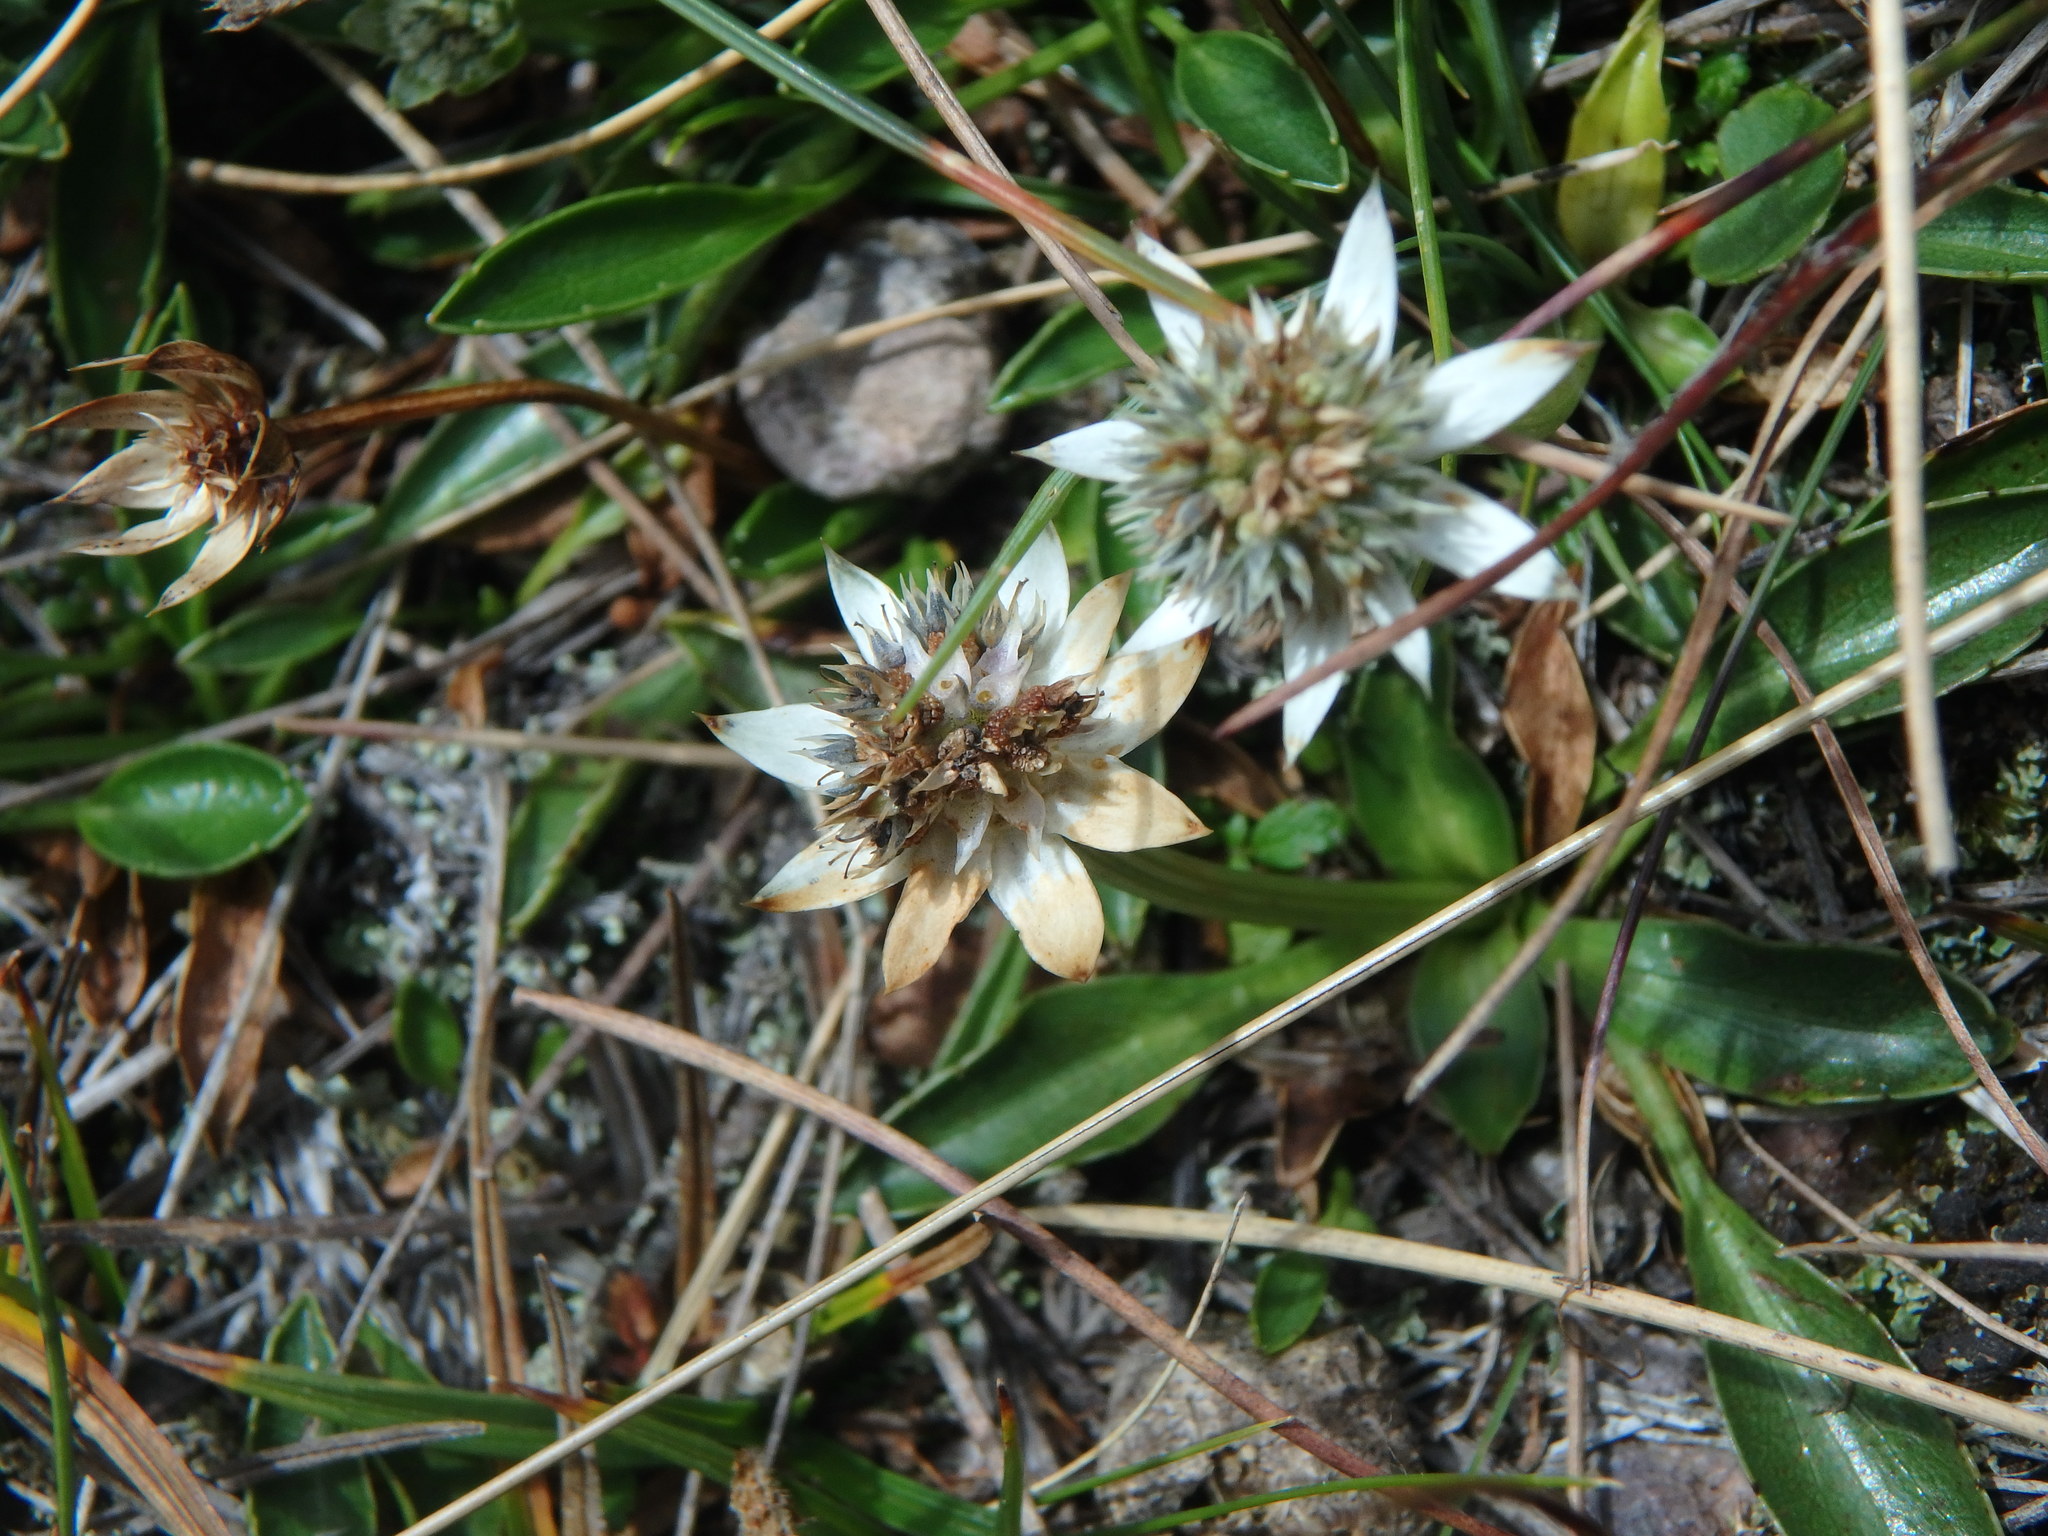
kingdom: Plantae
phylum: Tracheophyta
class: Magnoliopsida
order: Apiales
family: Apiaceae
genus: Eryngium
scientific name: Eryngium humile
